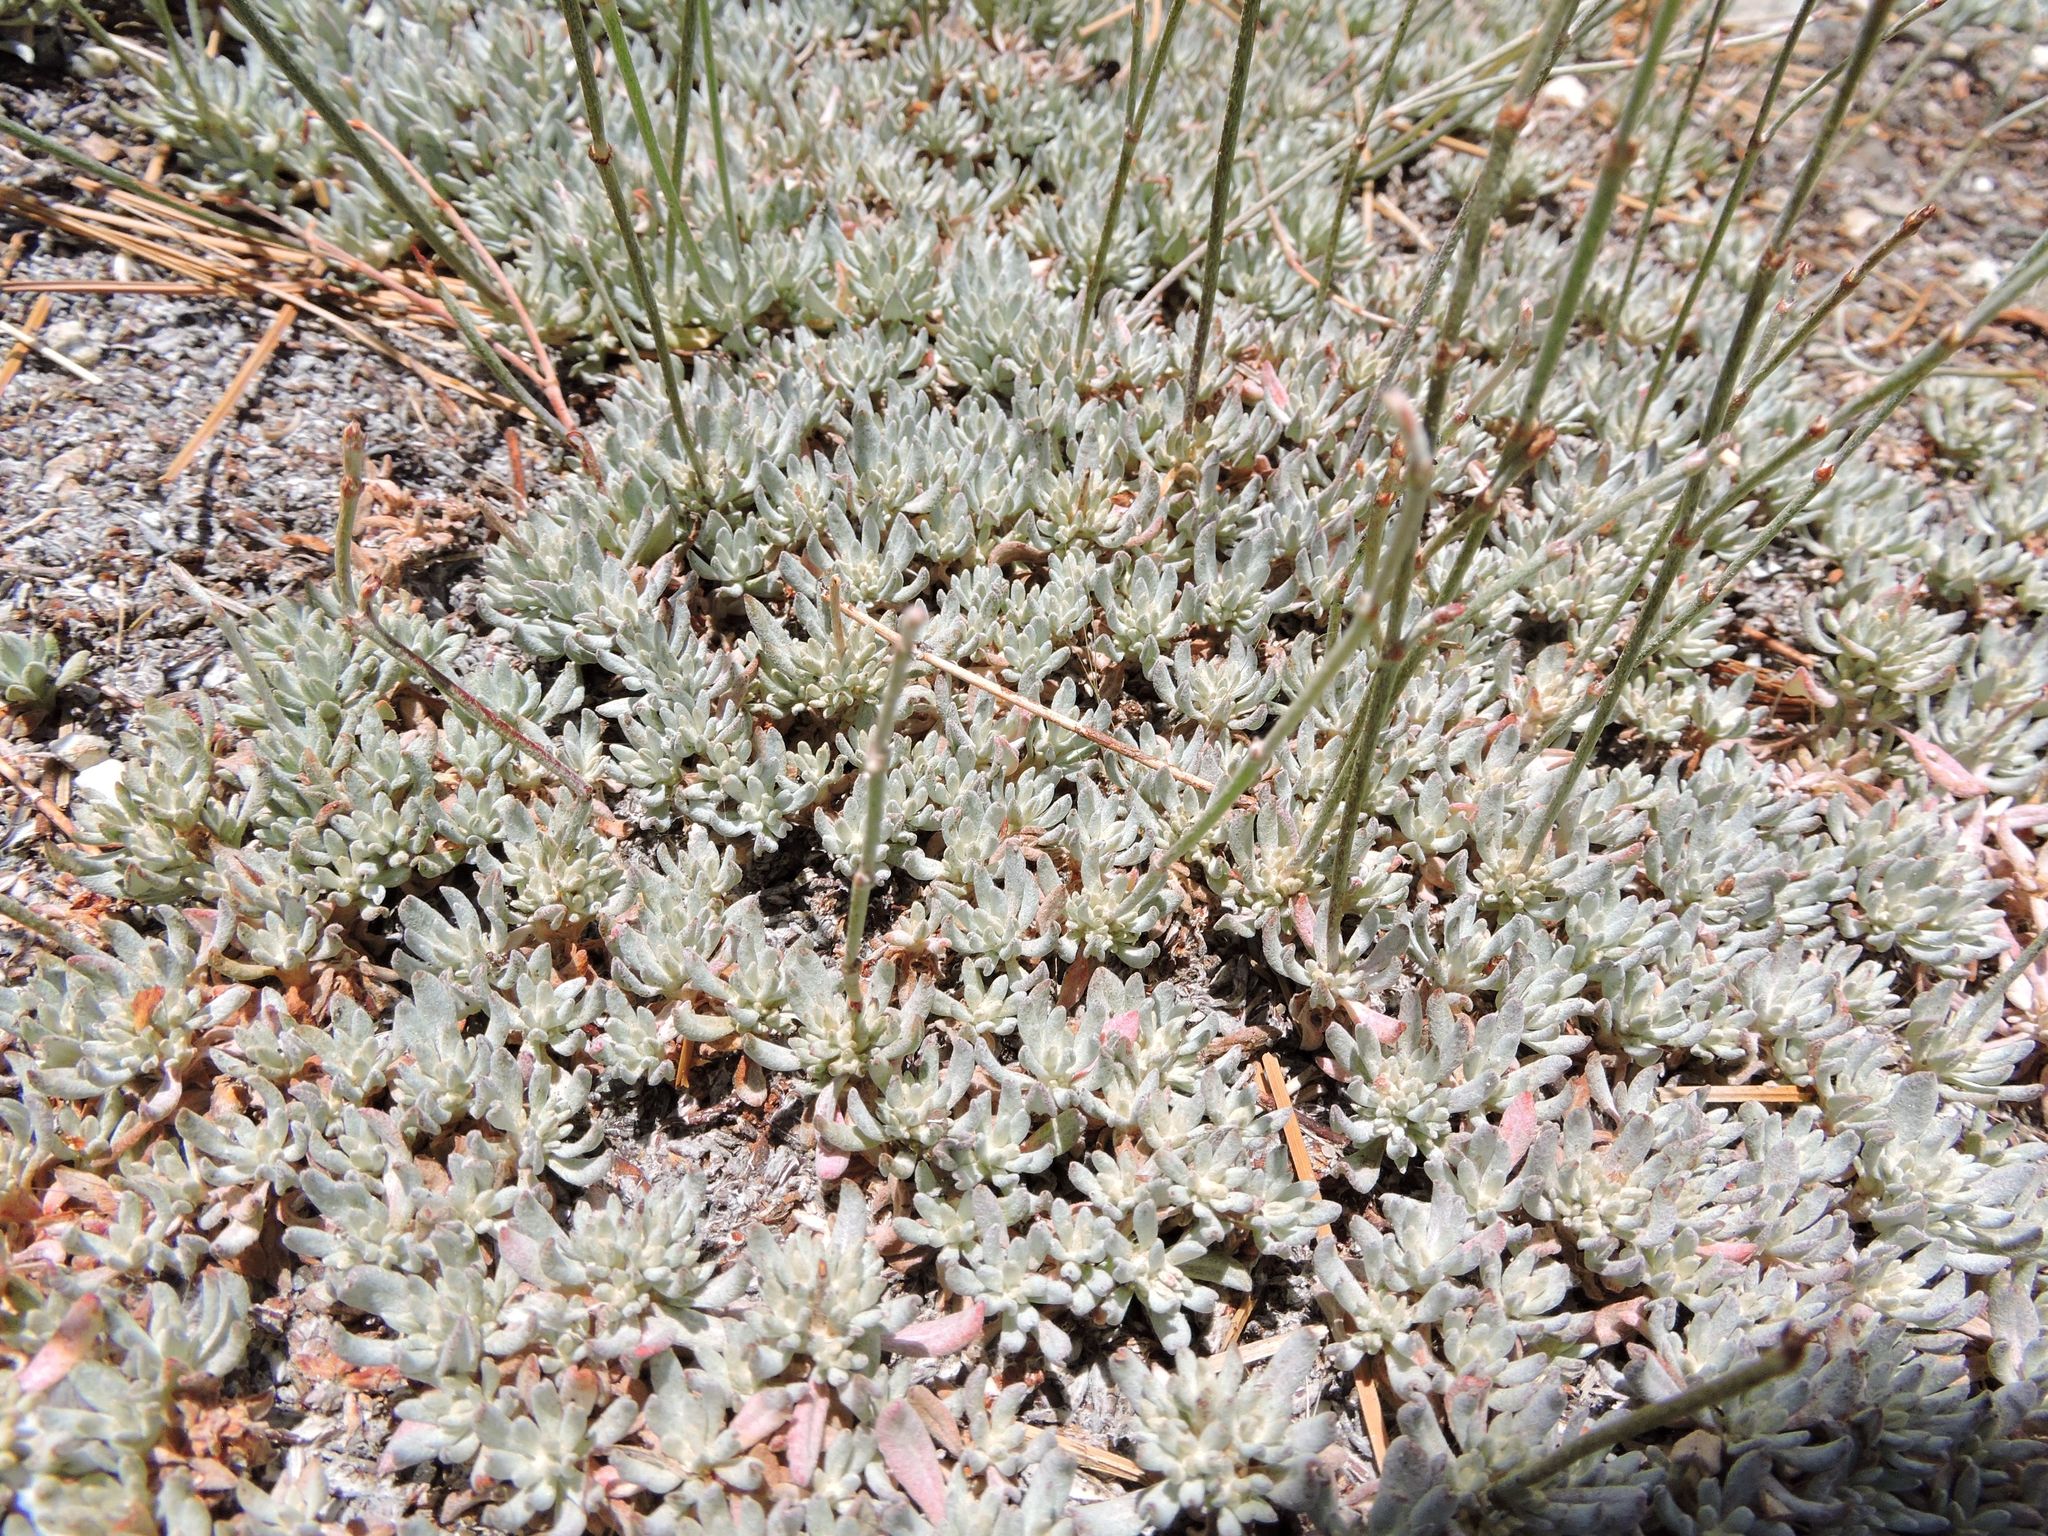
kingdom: Plantae
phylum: Tracheophyta
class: Magnoliopsida
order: Caryophyllales
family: Polygonaceae
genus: Eriogonum
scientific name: Eriogonum wrightii
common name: Bastard-sage
